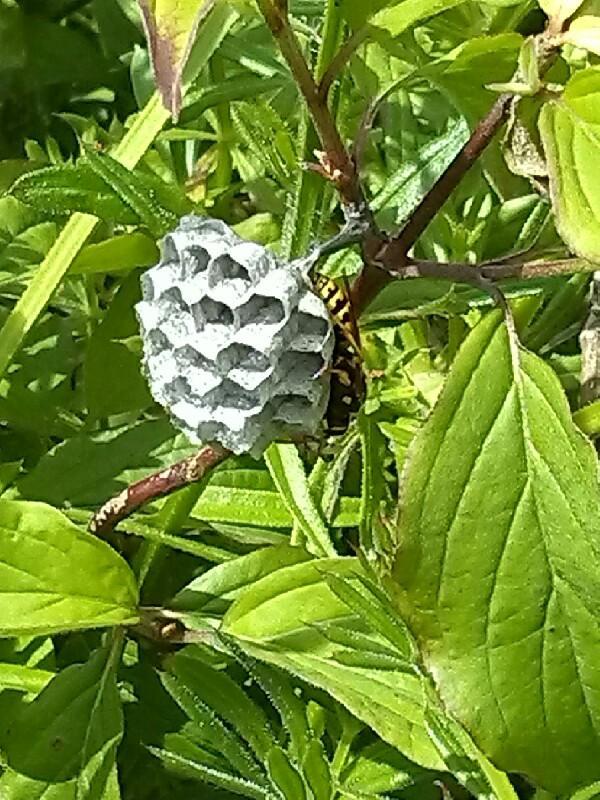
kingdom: Animalia
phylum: Arthropoda
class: Insecta
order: Hymenoptera
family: Eumenidae
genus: Polistes
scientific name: Polistes dominula
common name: Paper wasp
